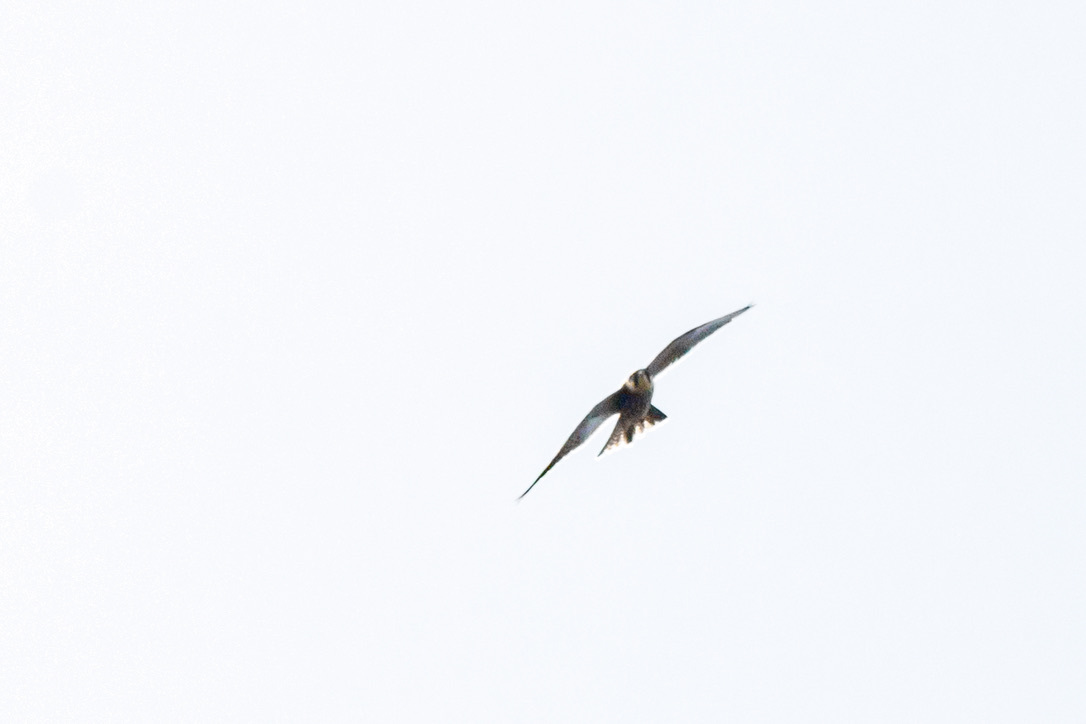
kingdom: Animalia
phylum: Chordata
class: Aves
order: Falconiformes
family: Falconidae
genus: Falco
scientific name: Falco subbuteo
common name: Eurasian hobby
